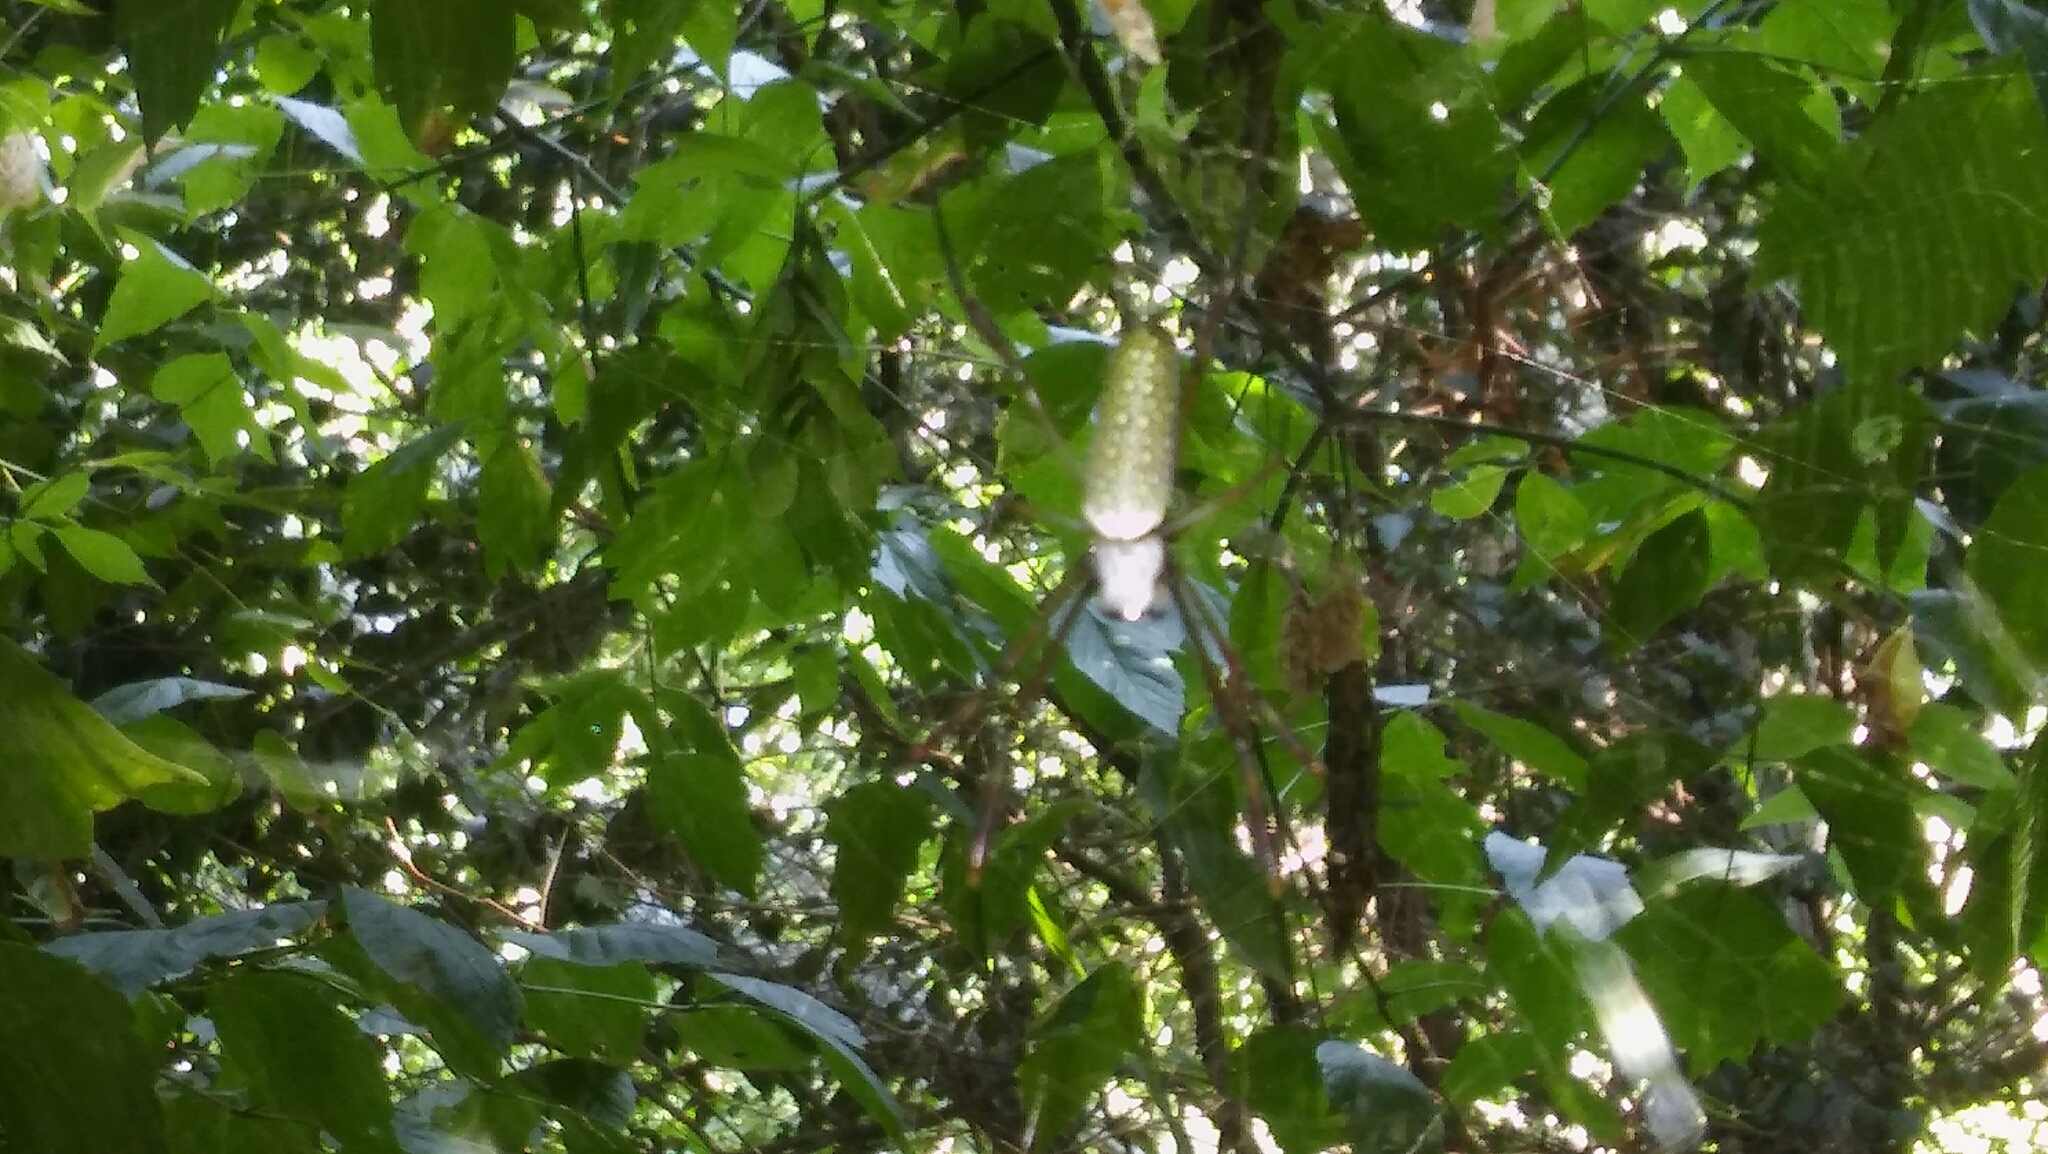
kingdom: Animalia
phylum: Arthropoda
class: Arachnida
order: Araneae
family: Araneidae
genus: Trichonephila
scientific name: Trichonephila clavipes
